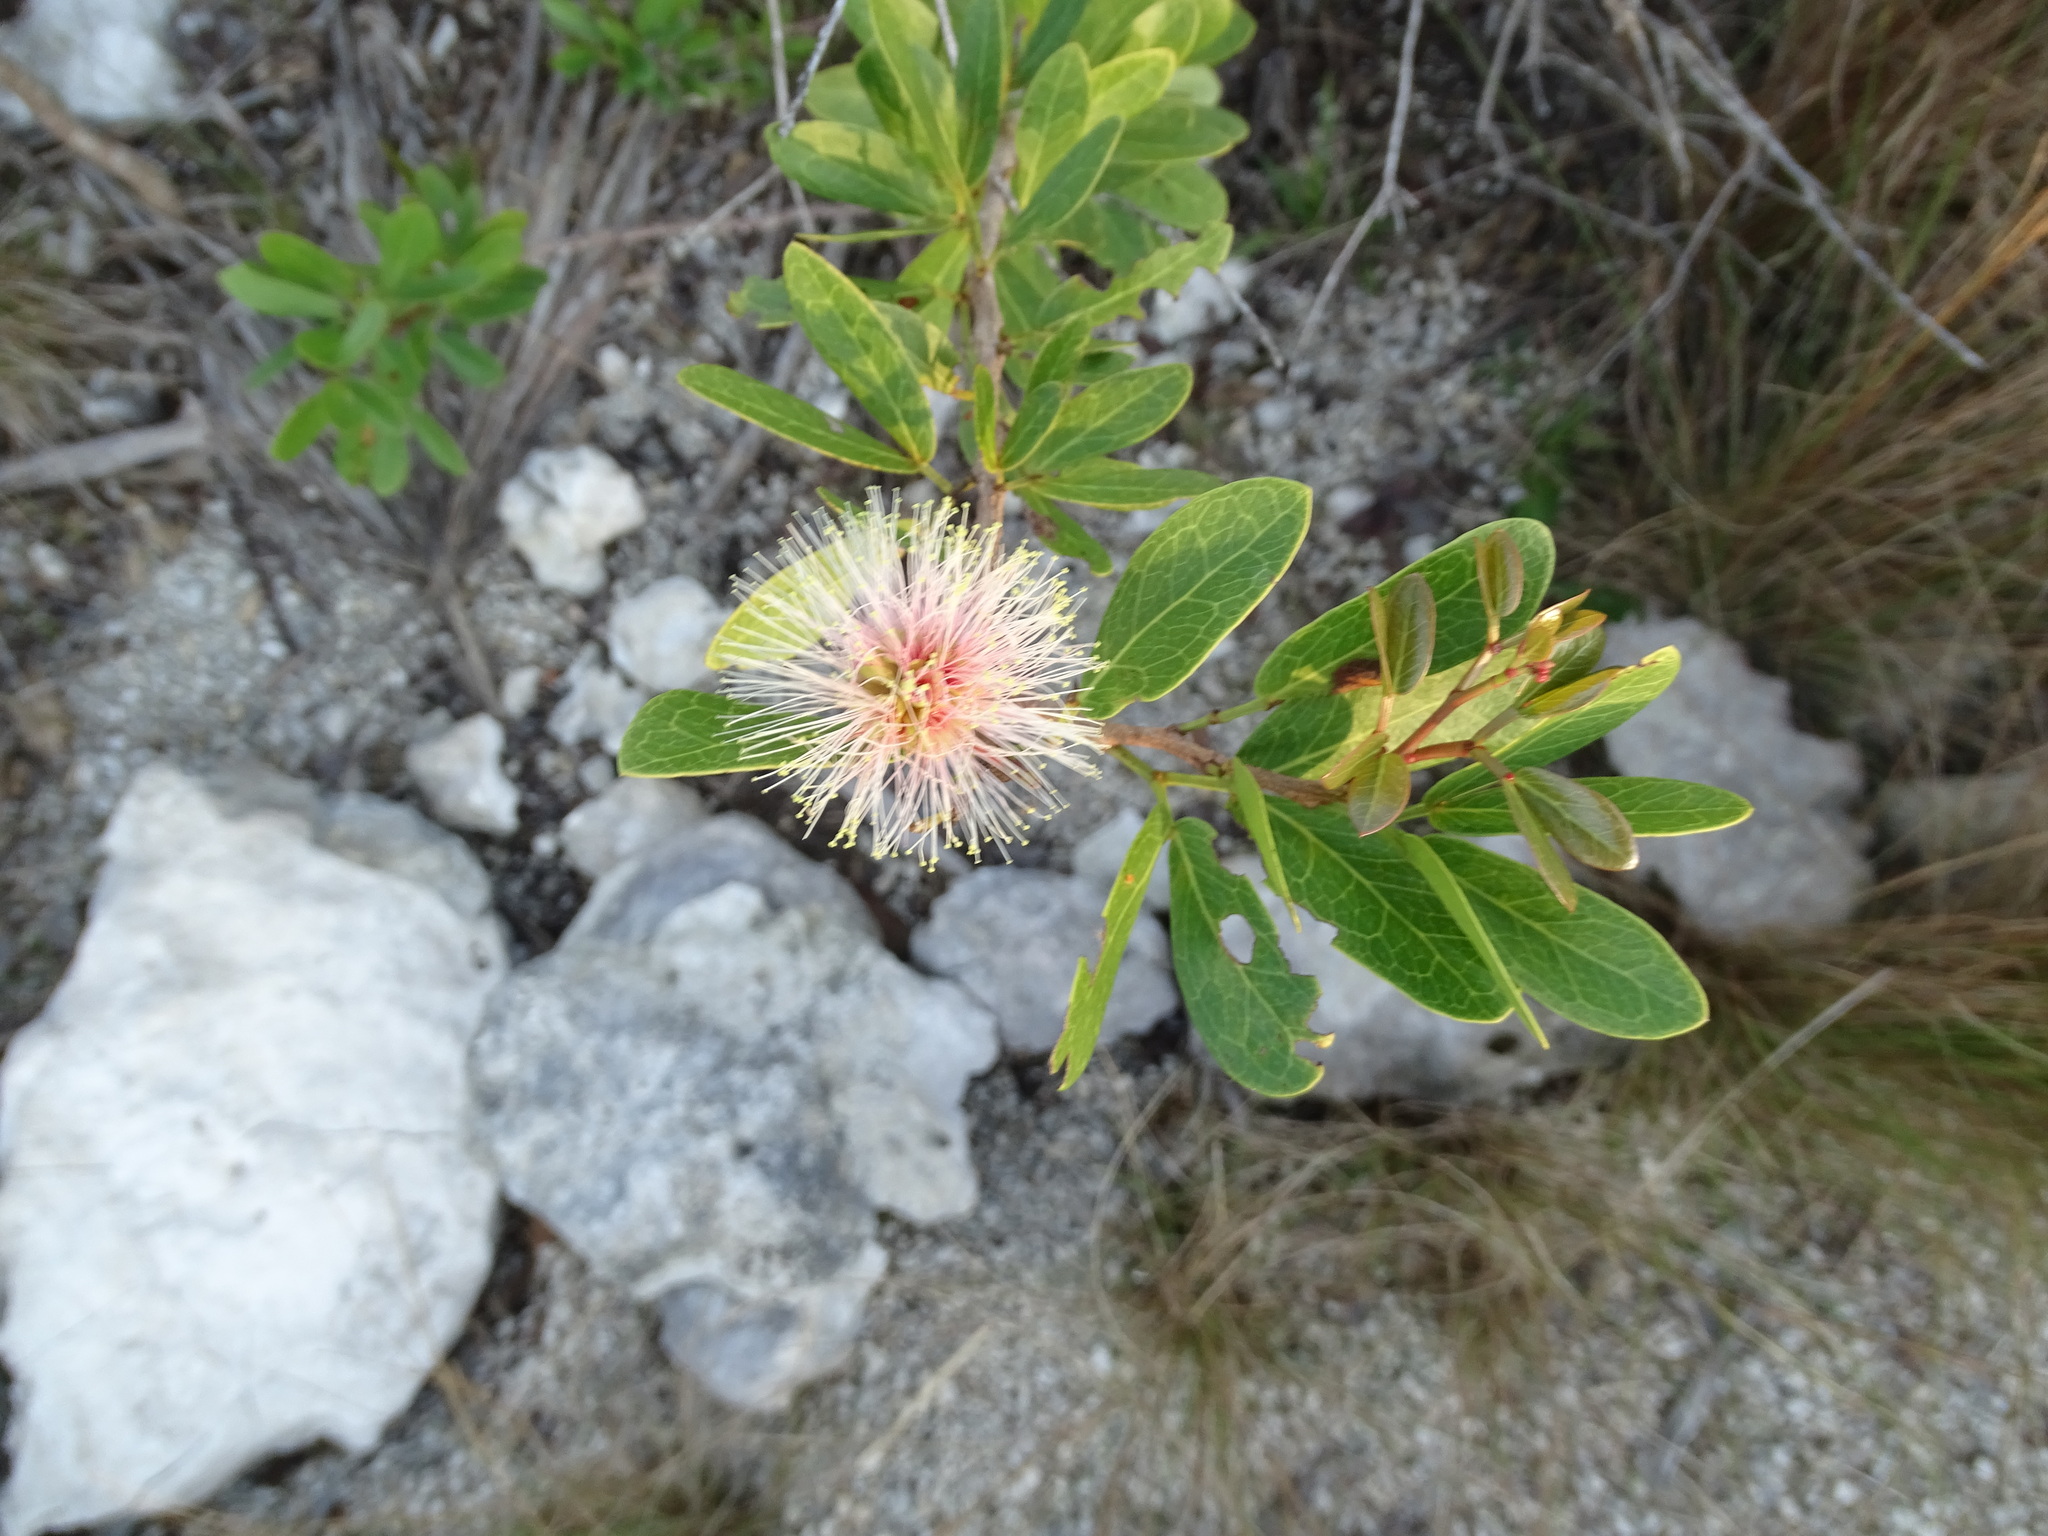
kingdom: Plantae
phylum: Tracheophyta
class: Magnoliopsida
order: Fabales
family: Fabaceae
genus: Pithecellobium
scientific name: Pithecellobium keyense
